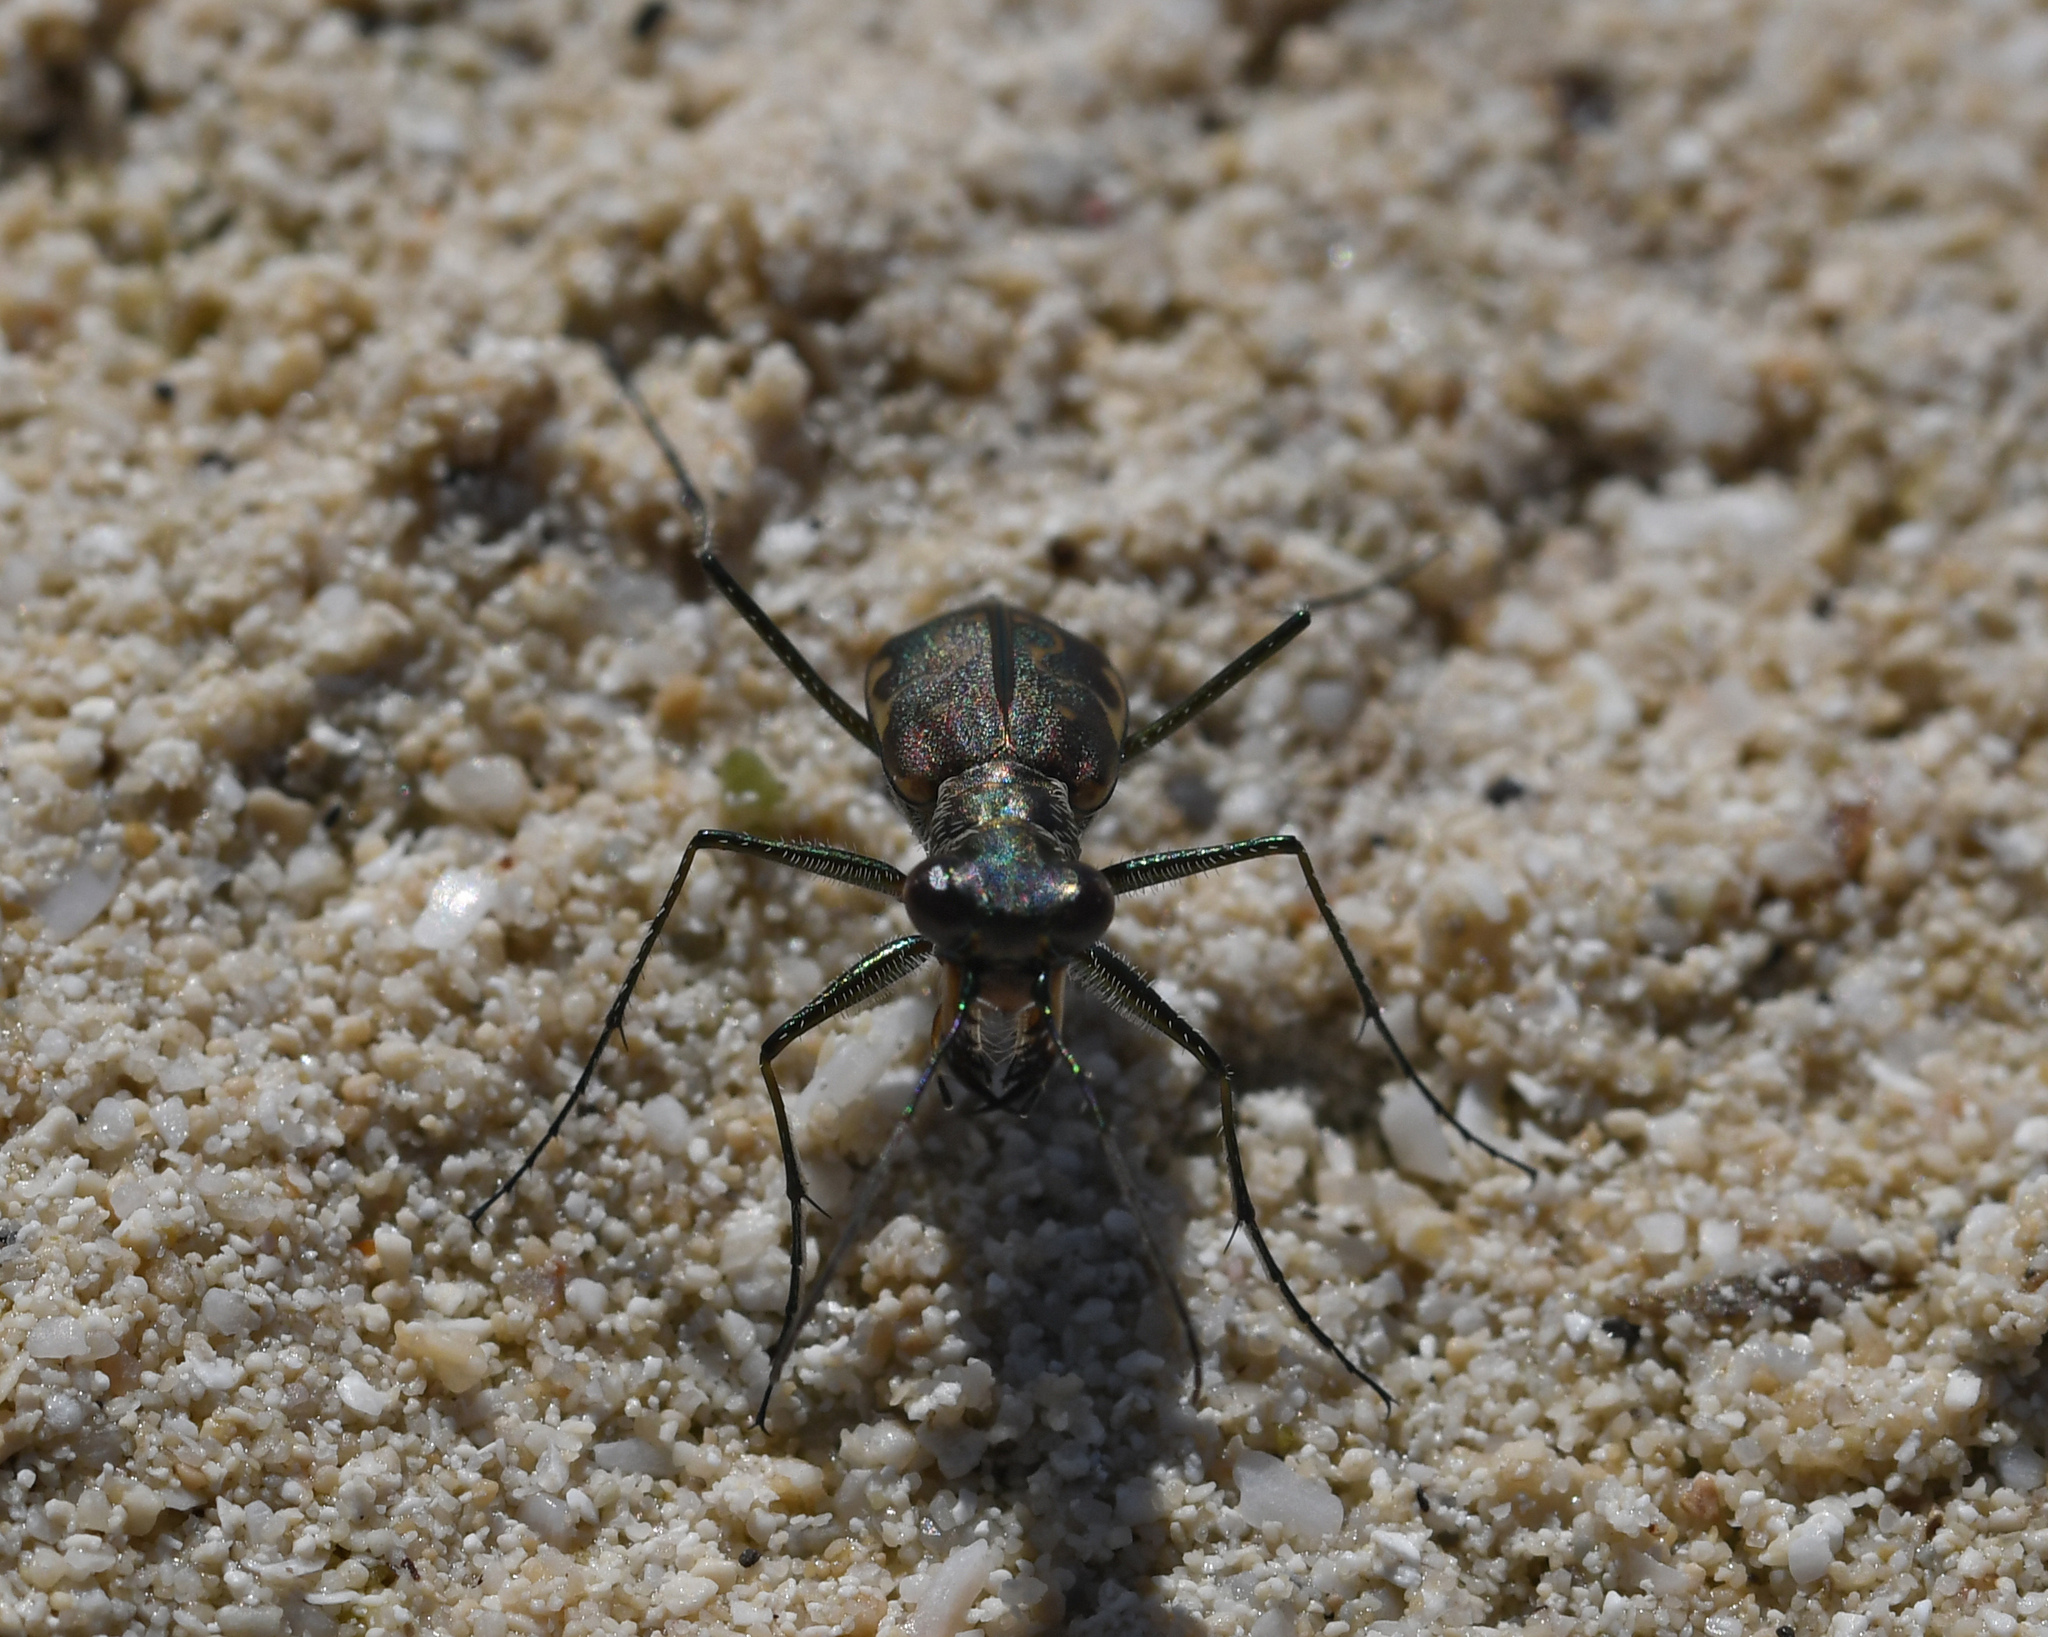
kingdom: Animalia
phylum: Arthropoda
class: Insecta
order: Coleoptera
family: Carabidae
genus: Cicindela
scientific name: Cicindela trifasciata
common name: Mudflat tiger beetle
